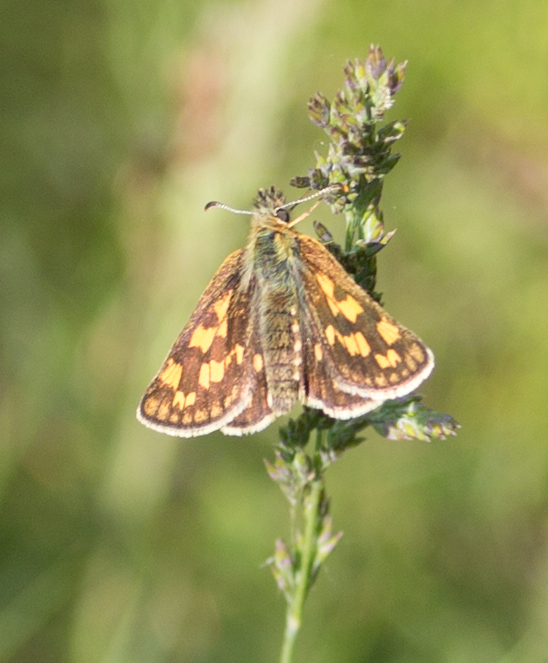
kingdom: Animalia
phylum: Arthropoda
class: Insecta
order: Lepidoptera
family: Hesperiidae
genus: Carterocephalus
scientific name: Carterocephalus palaemon
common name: Chequered skipper
